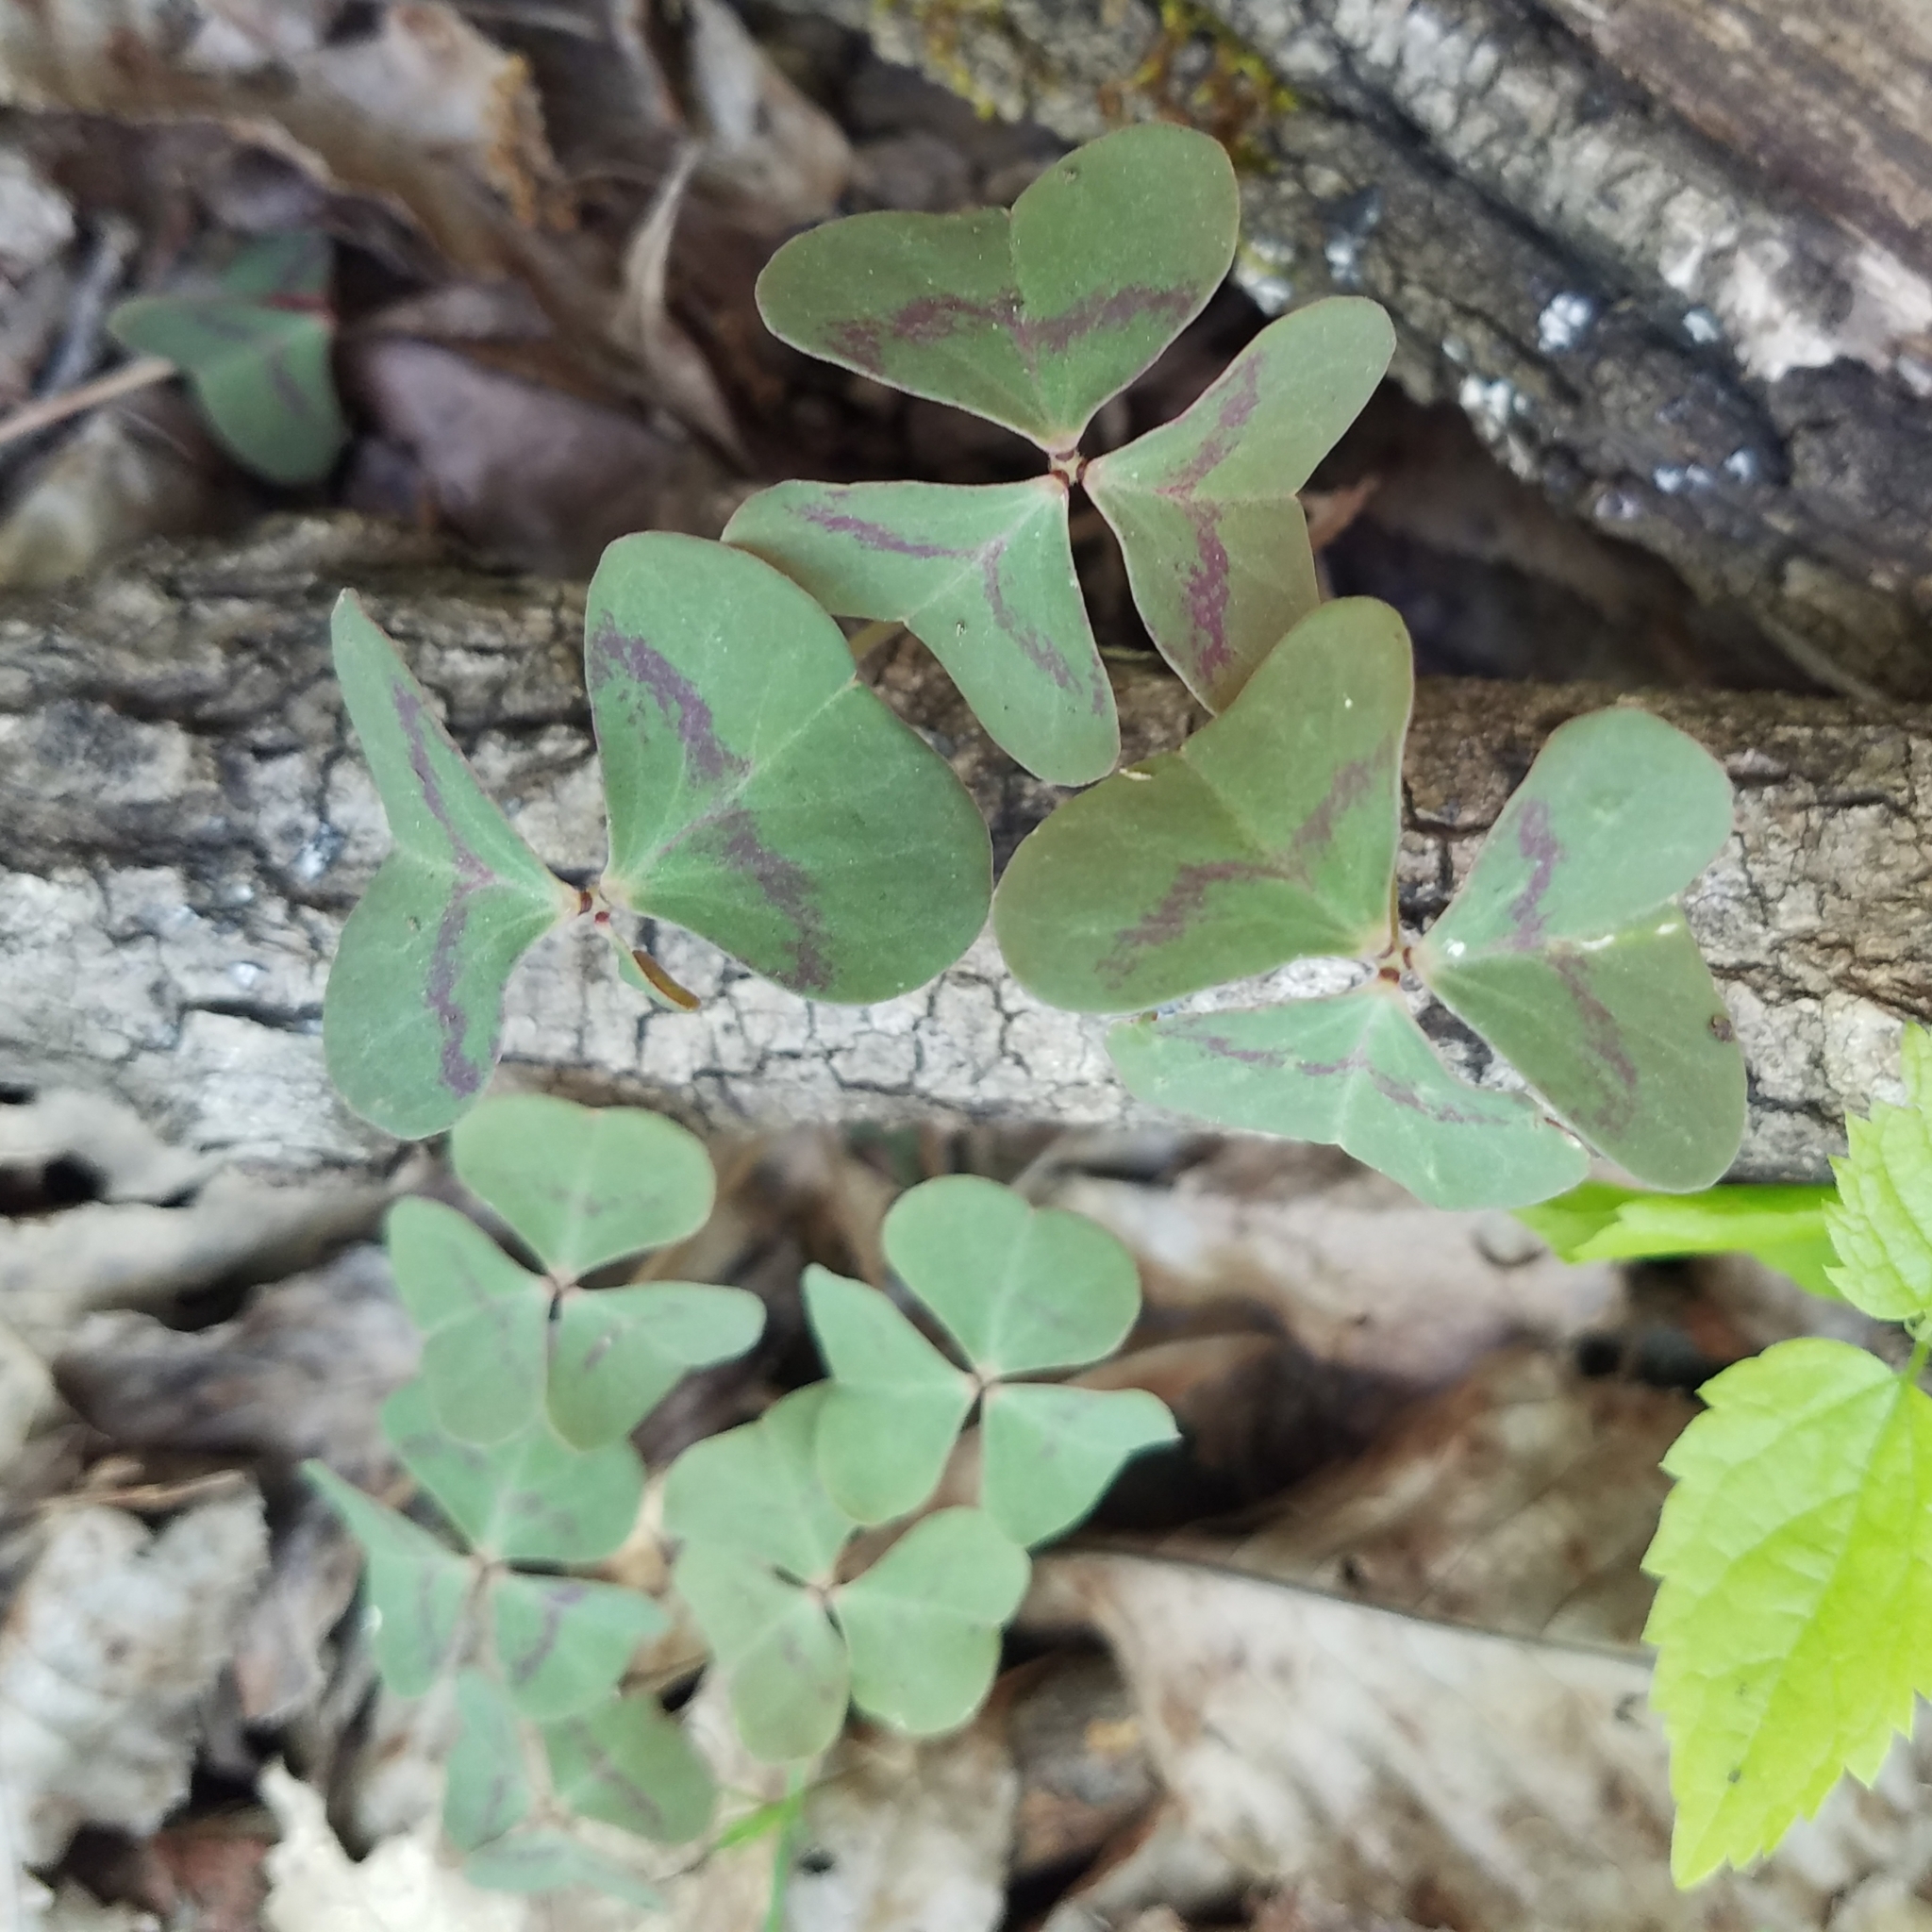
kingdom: Plantae
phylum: Tracheophyta
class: Magnoliopsida
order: Oxalidales
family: Oxalidaceae
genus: Oxalis
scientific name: Oxalis violacea
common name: Violet wood-sorrel
